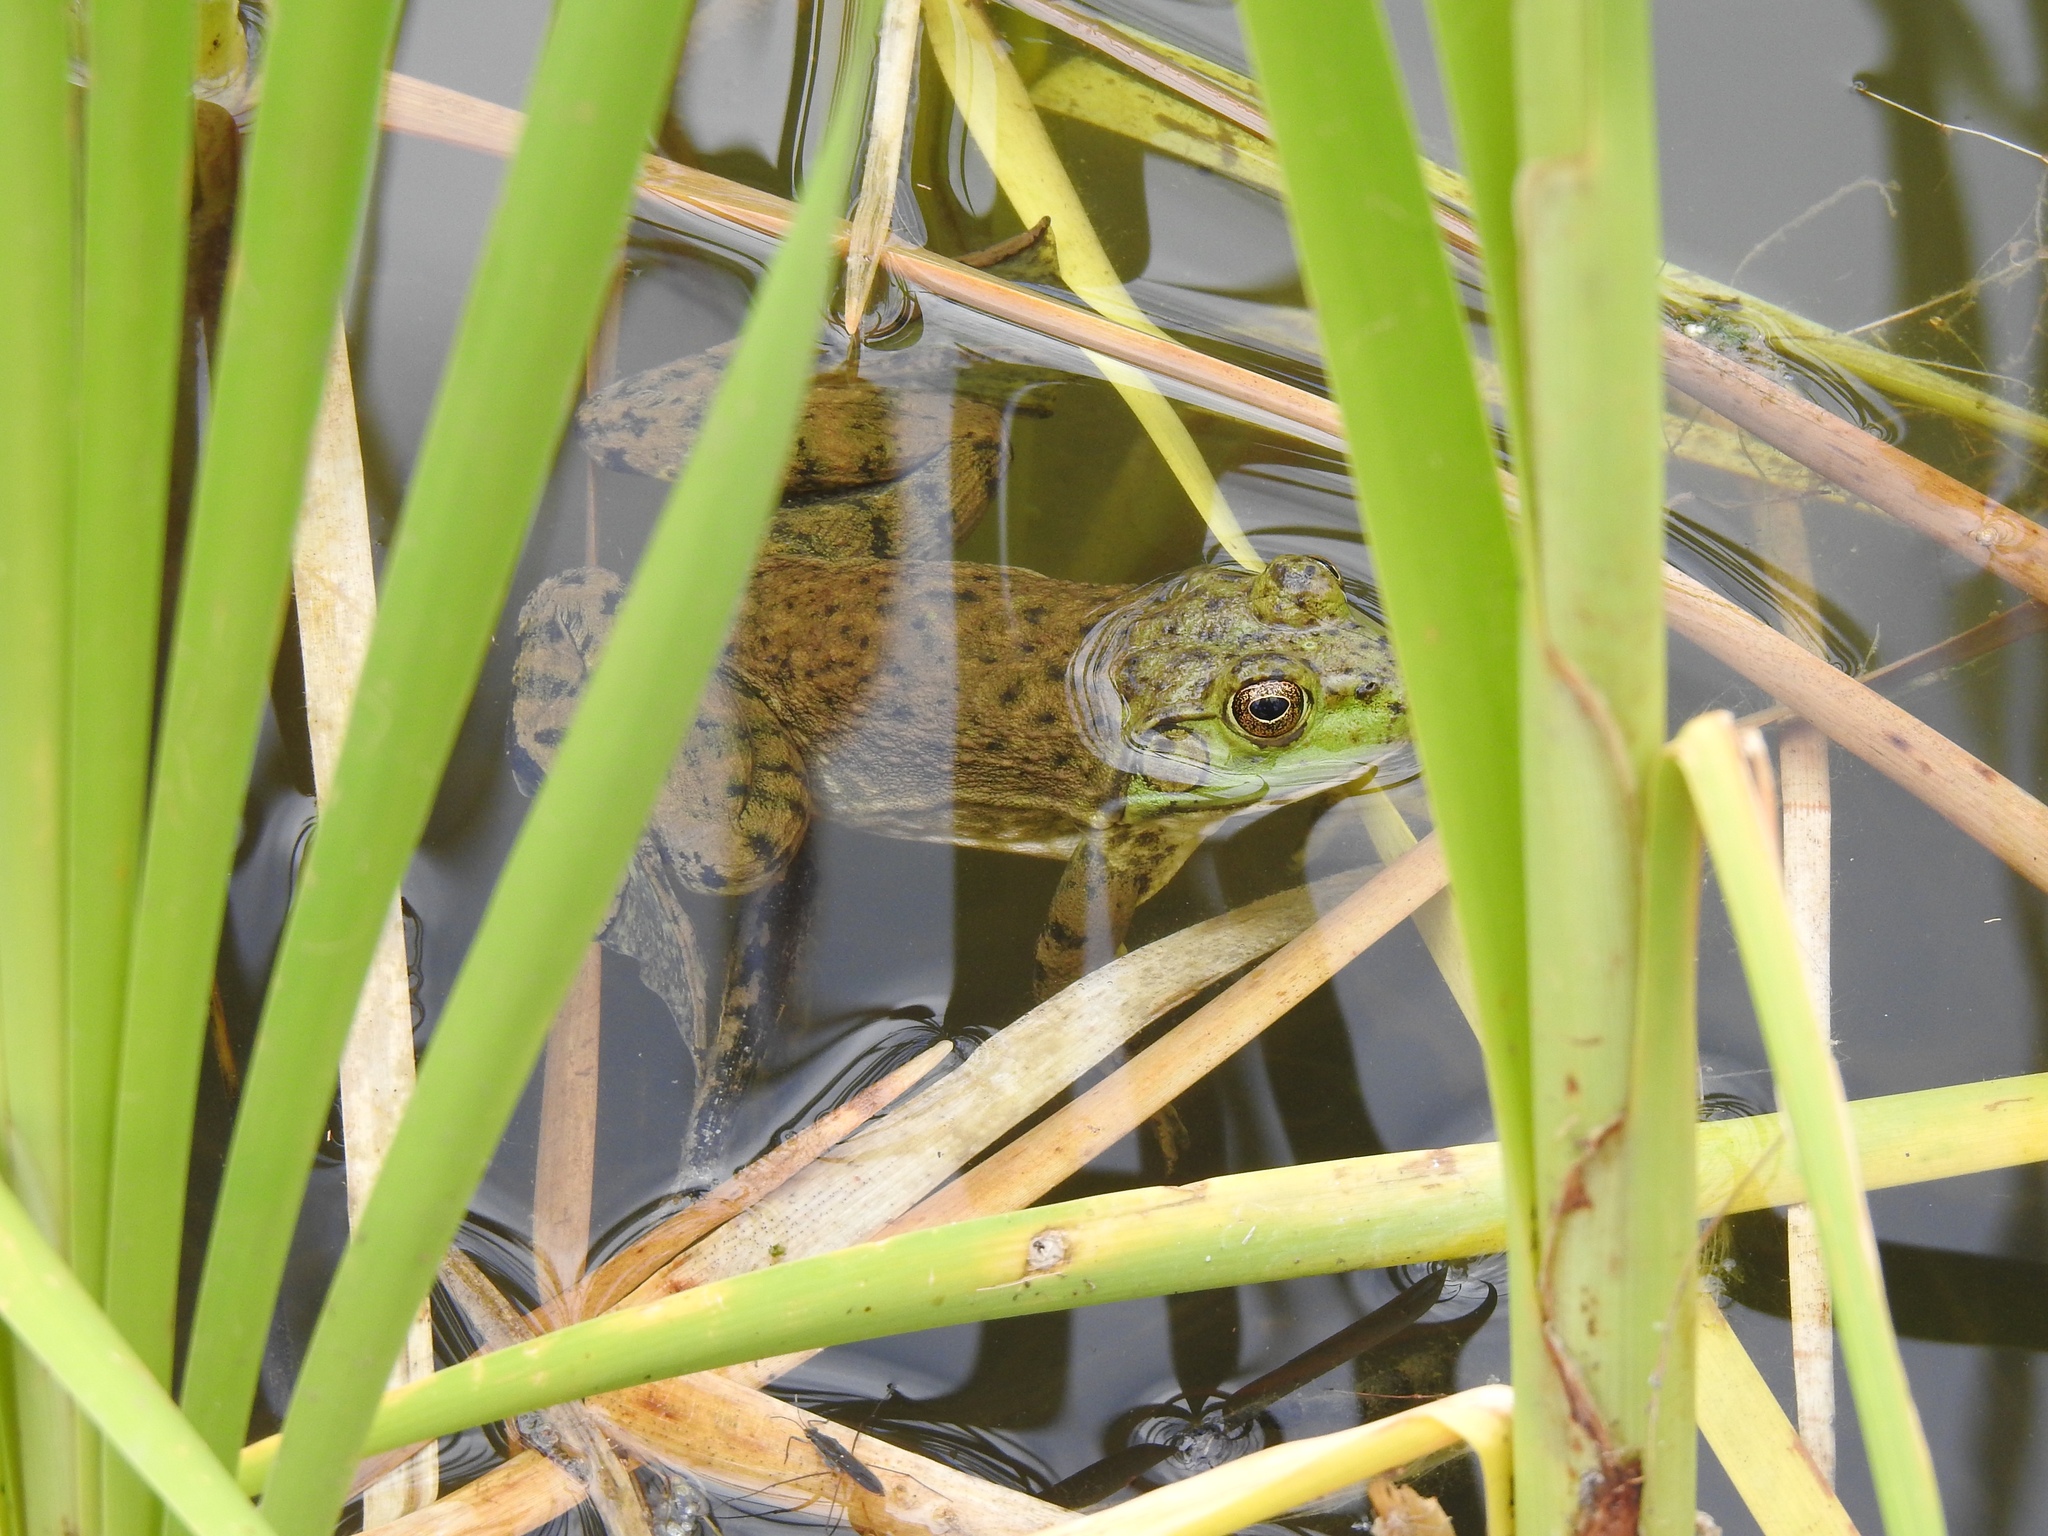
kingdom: Animalia
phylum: Chordata
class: Amphibia
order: Anura
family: Ranidae
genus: Lithobates
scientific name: Lithobates catesbeianus
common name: American bullfrog
